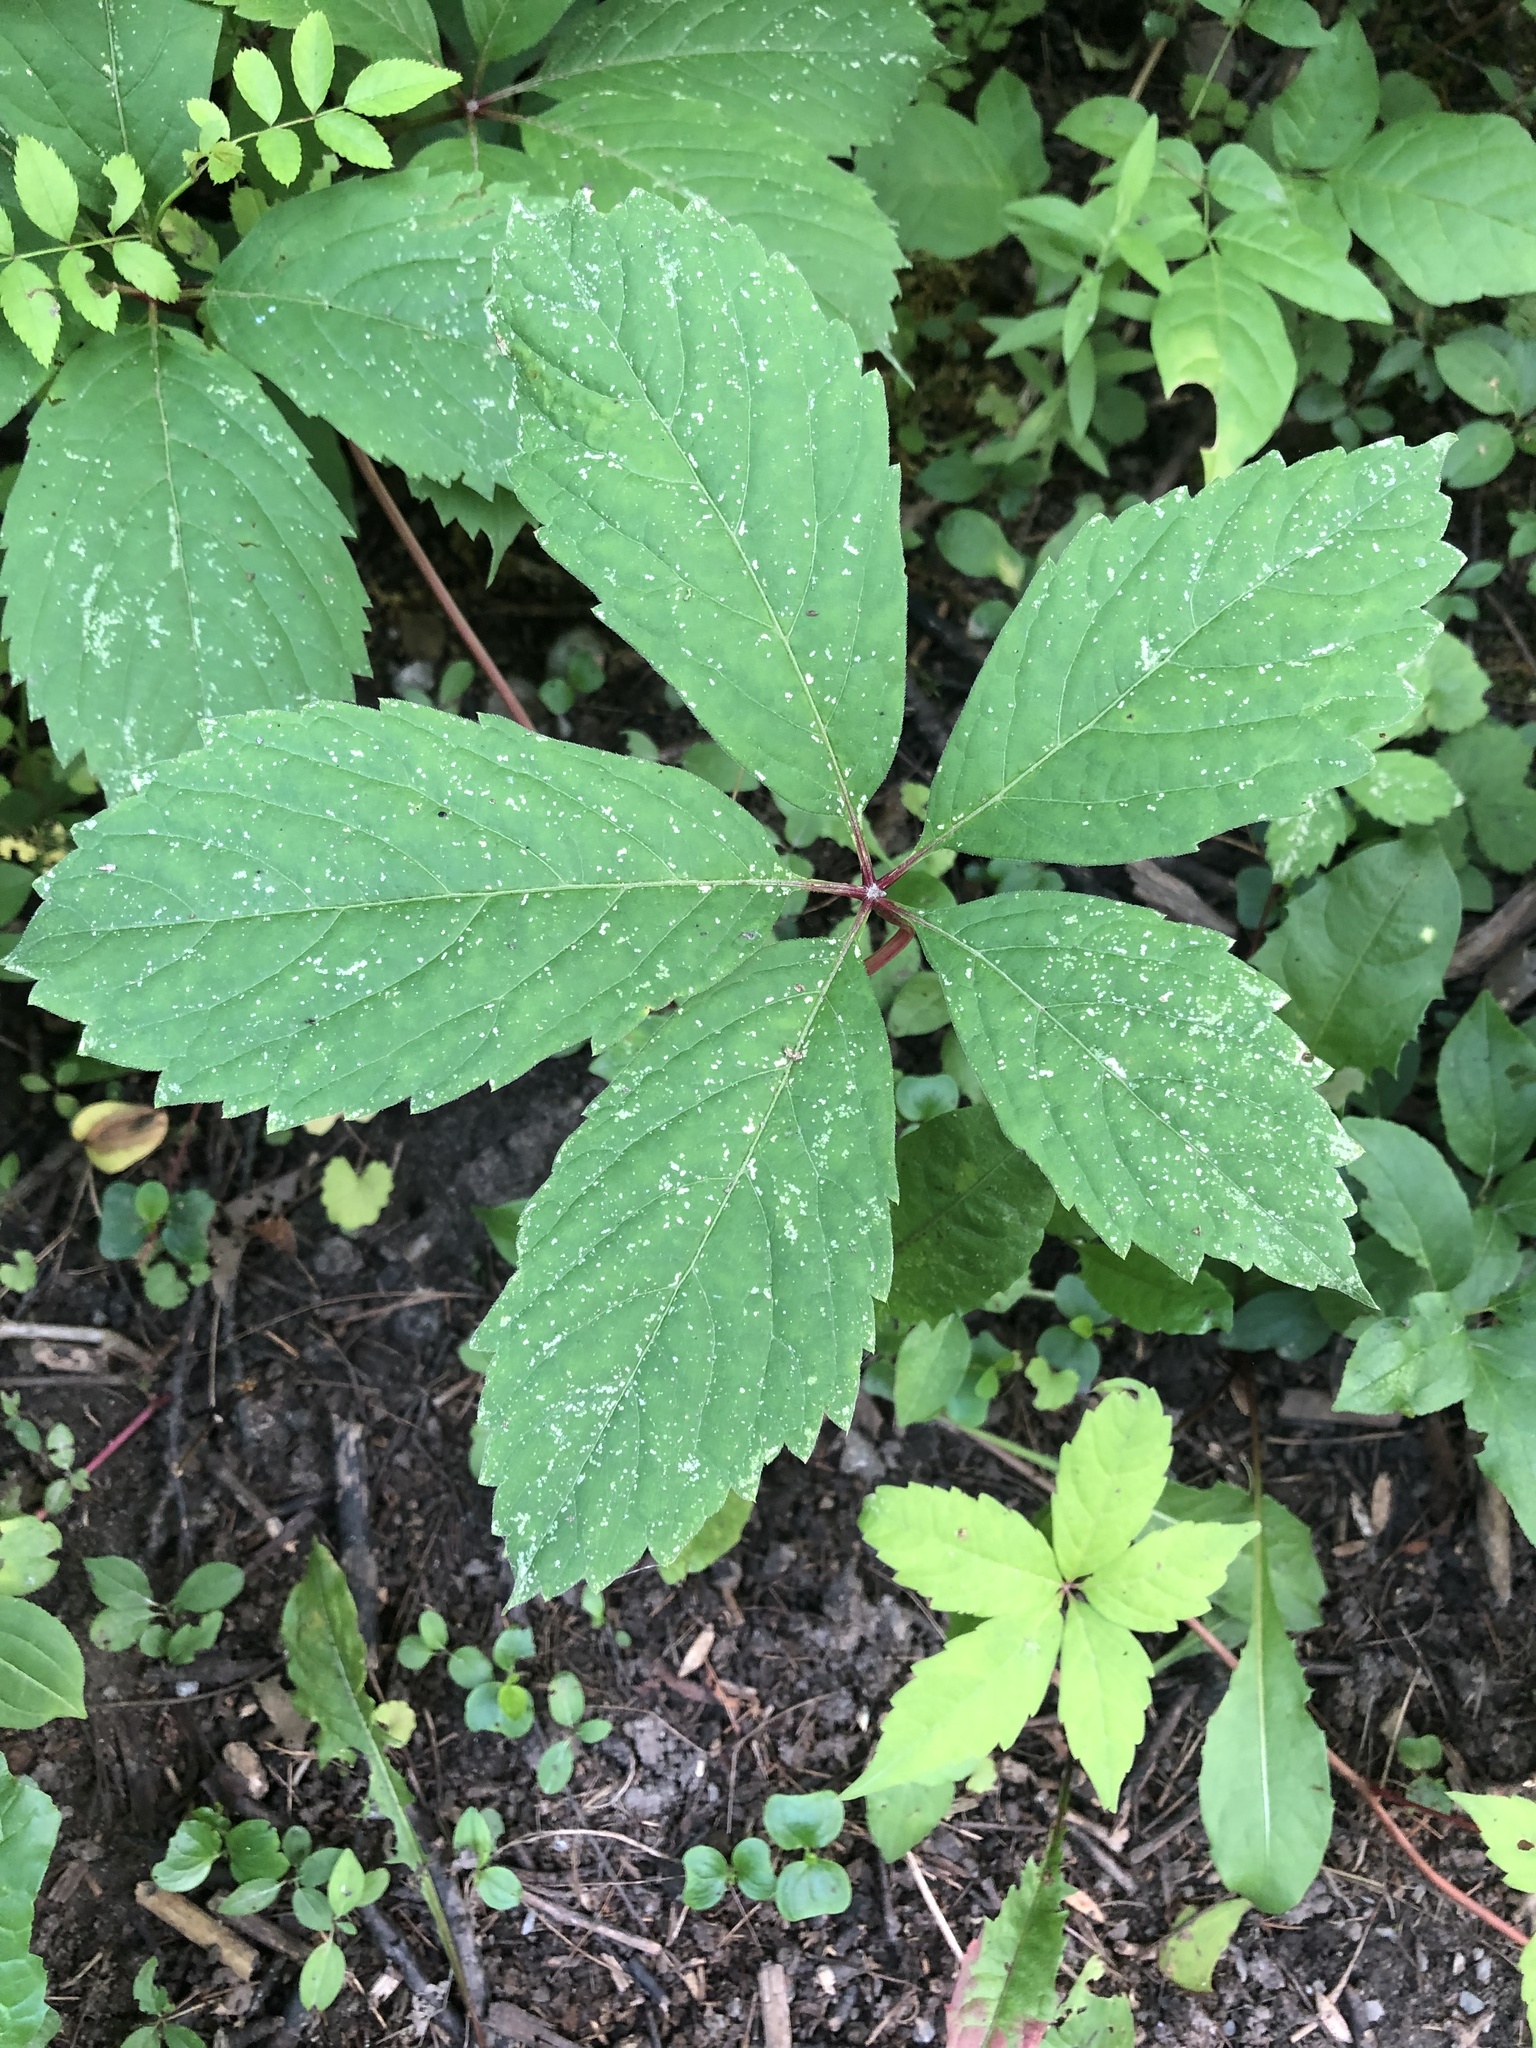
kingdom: Plantae
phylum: Tracheophyta
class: Magnoliopsida
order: Vitales
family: Vitaceae
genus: Parthenocissus
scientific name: Parthenocissus inserta
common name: False virginia-creeper
